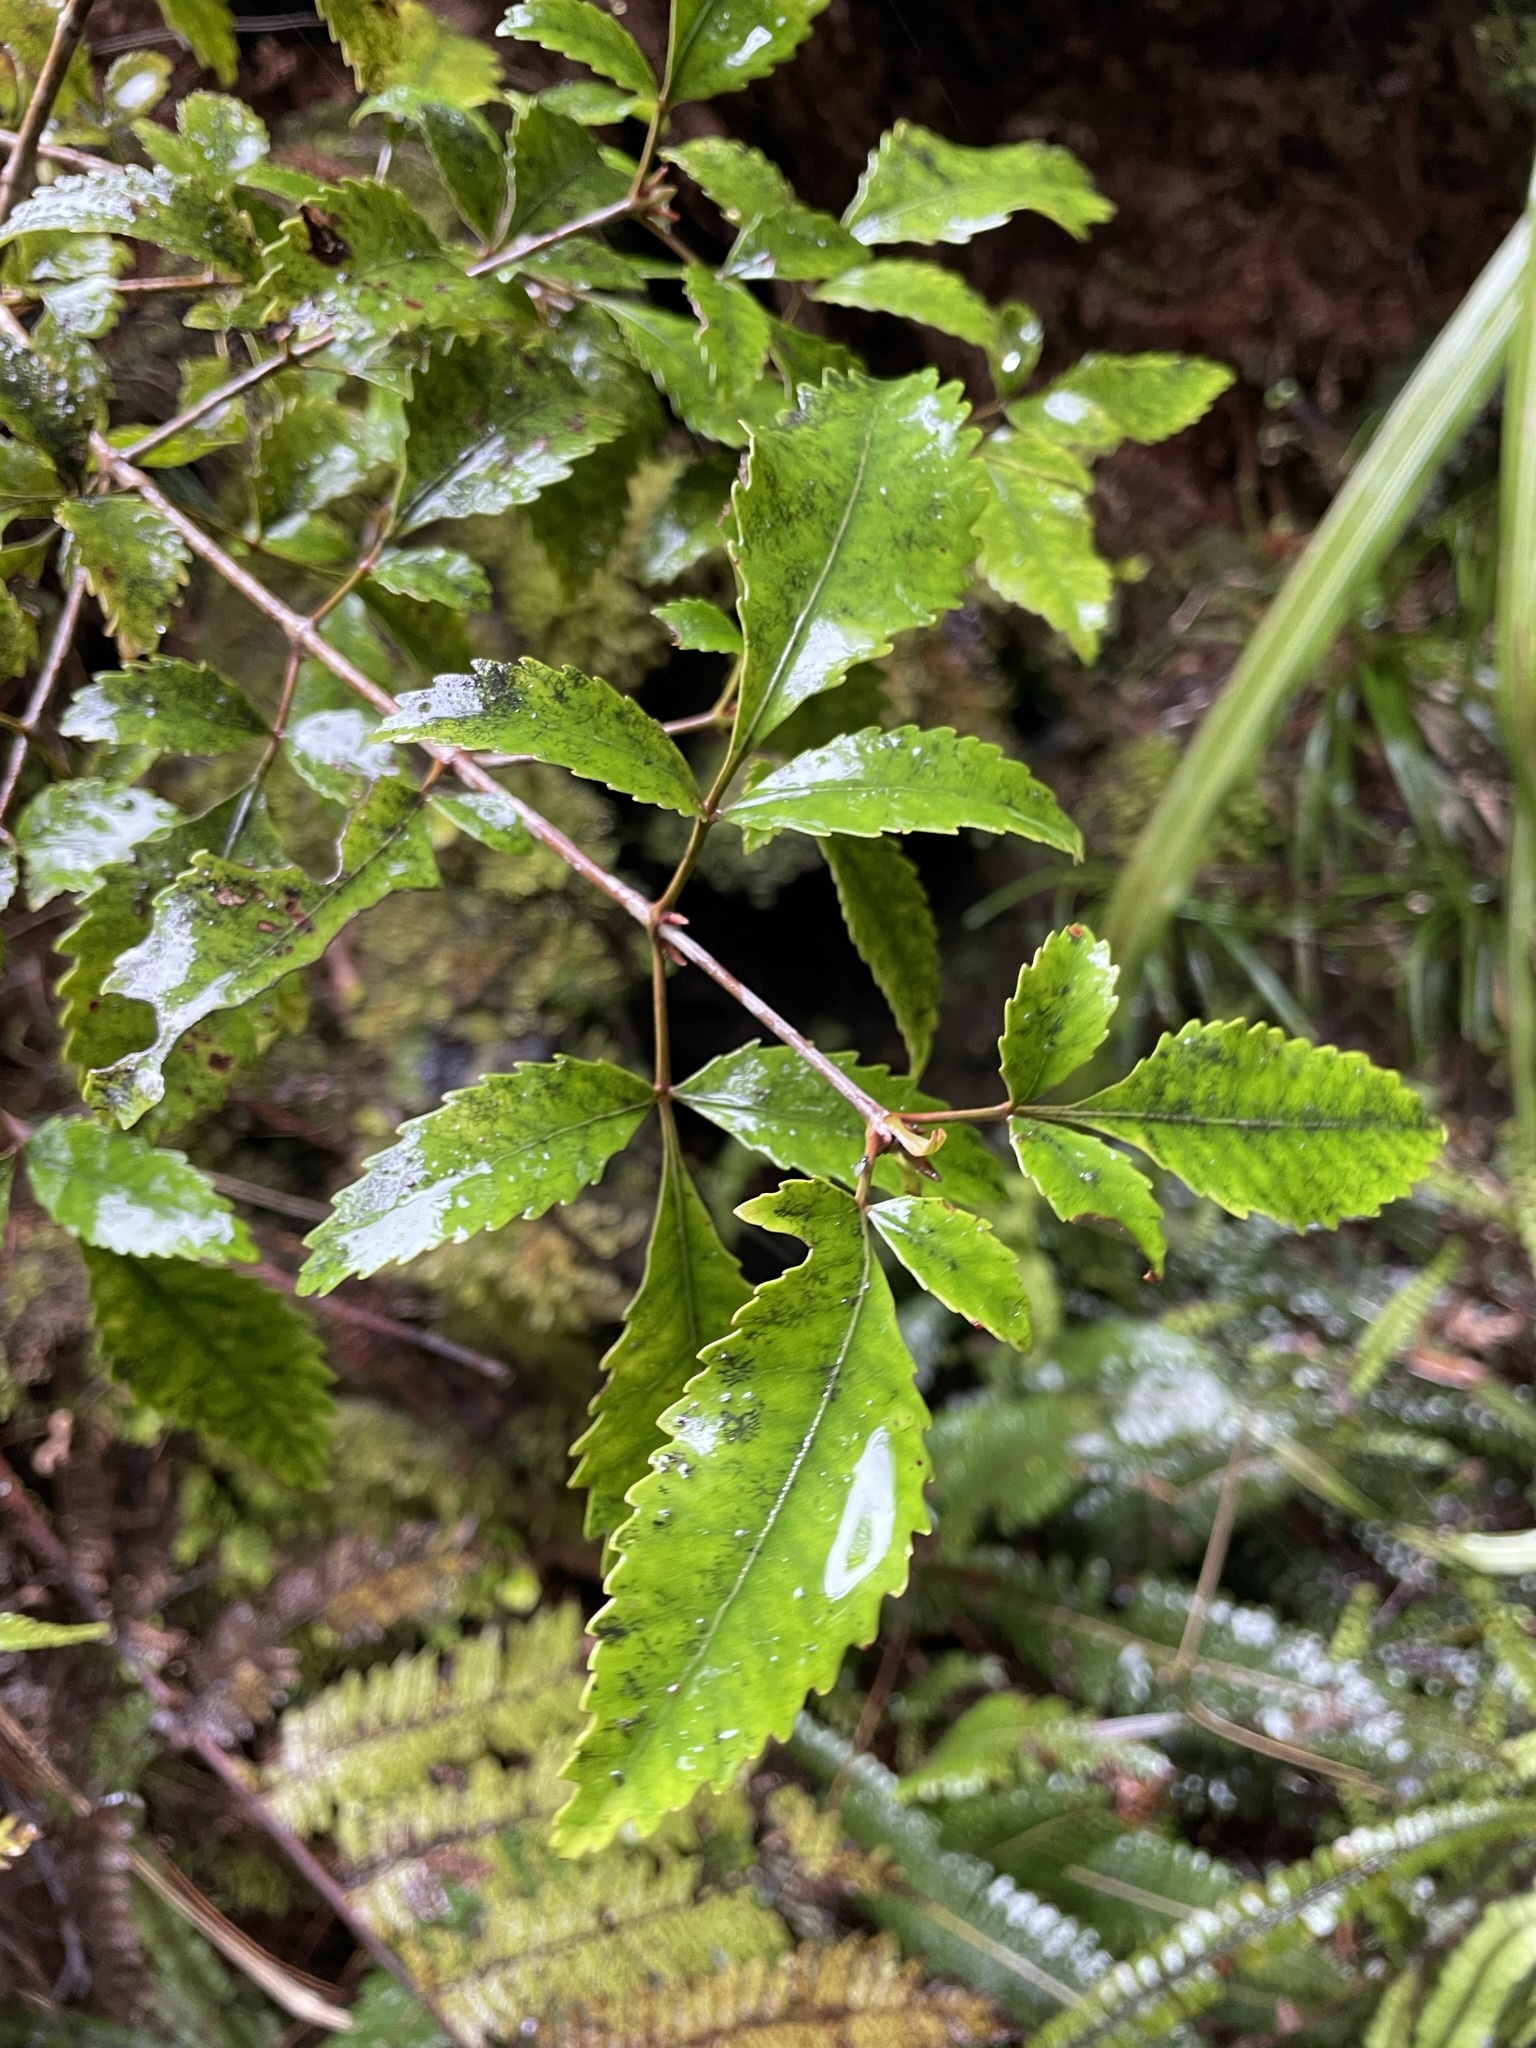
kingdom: Plantae
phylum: Tracheophyta
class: Magnoliopsida
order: Oxalidales
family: Cunoniaceae
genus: Pterophylla
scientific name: Pterophylla racemosa
